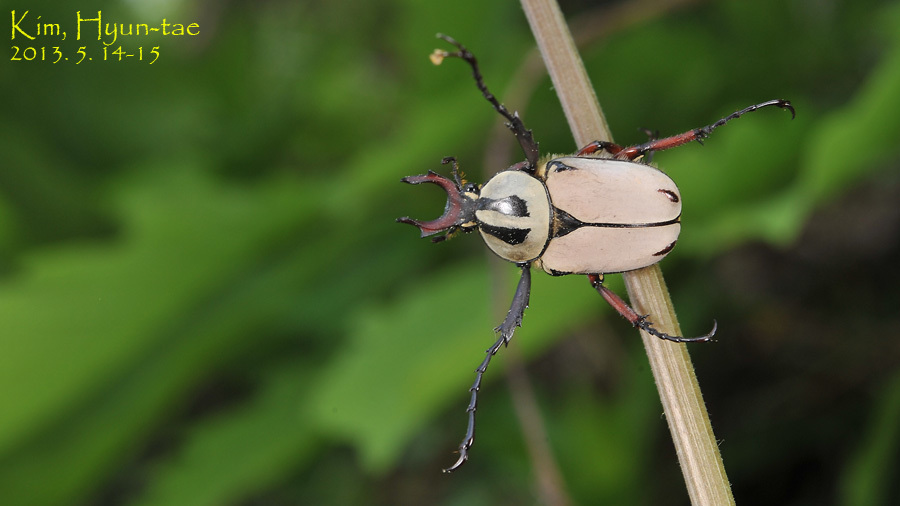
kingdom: Animalia
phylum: Arthropoda
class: Insecta
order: Coleoptera
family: Scarabaeidae
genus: Dicronocephalus
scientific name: Dicronocephalus adamsi
